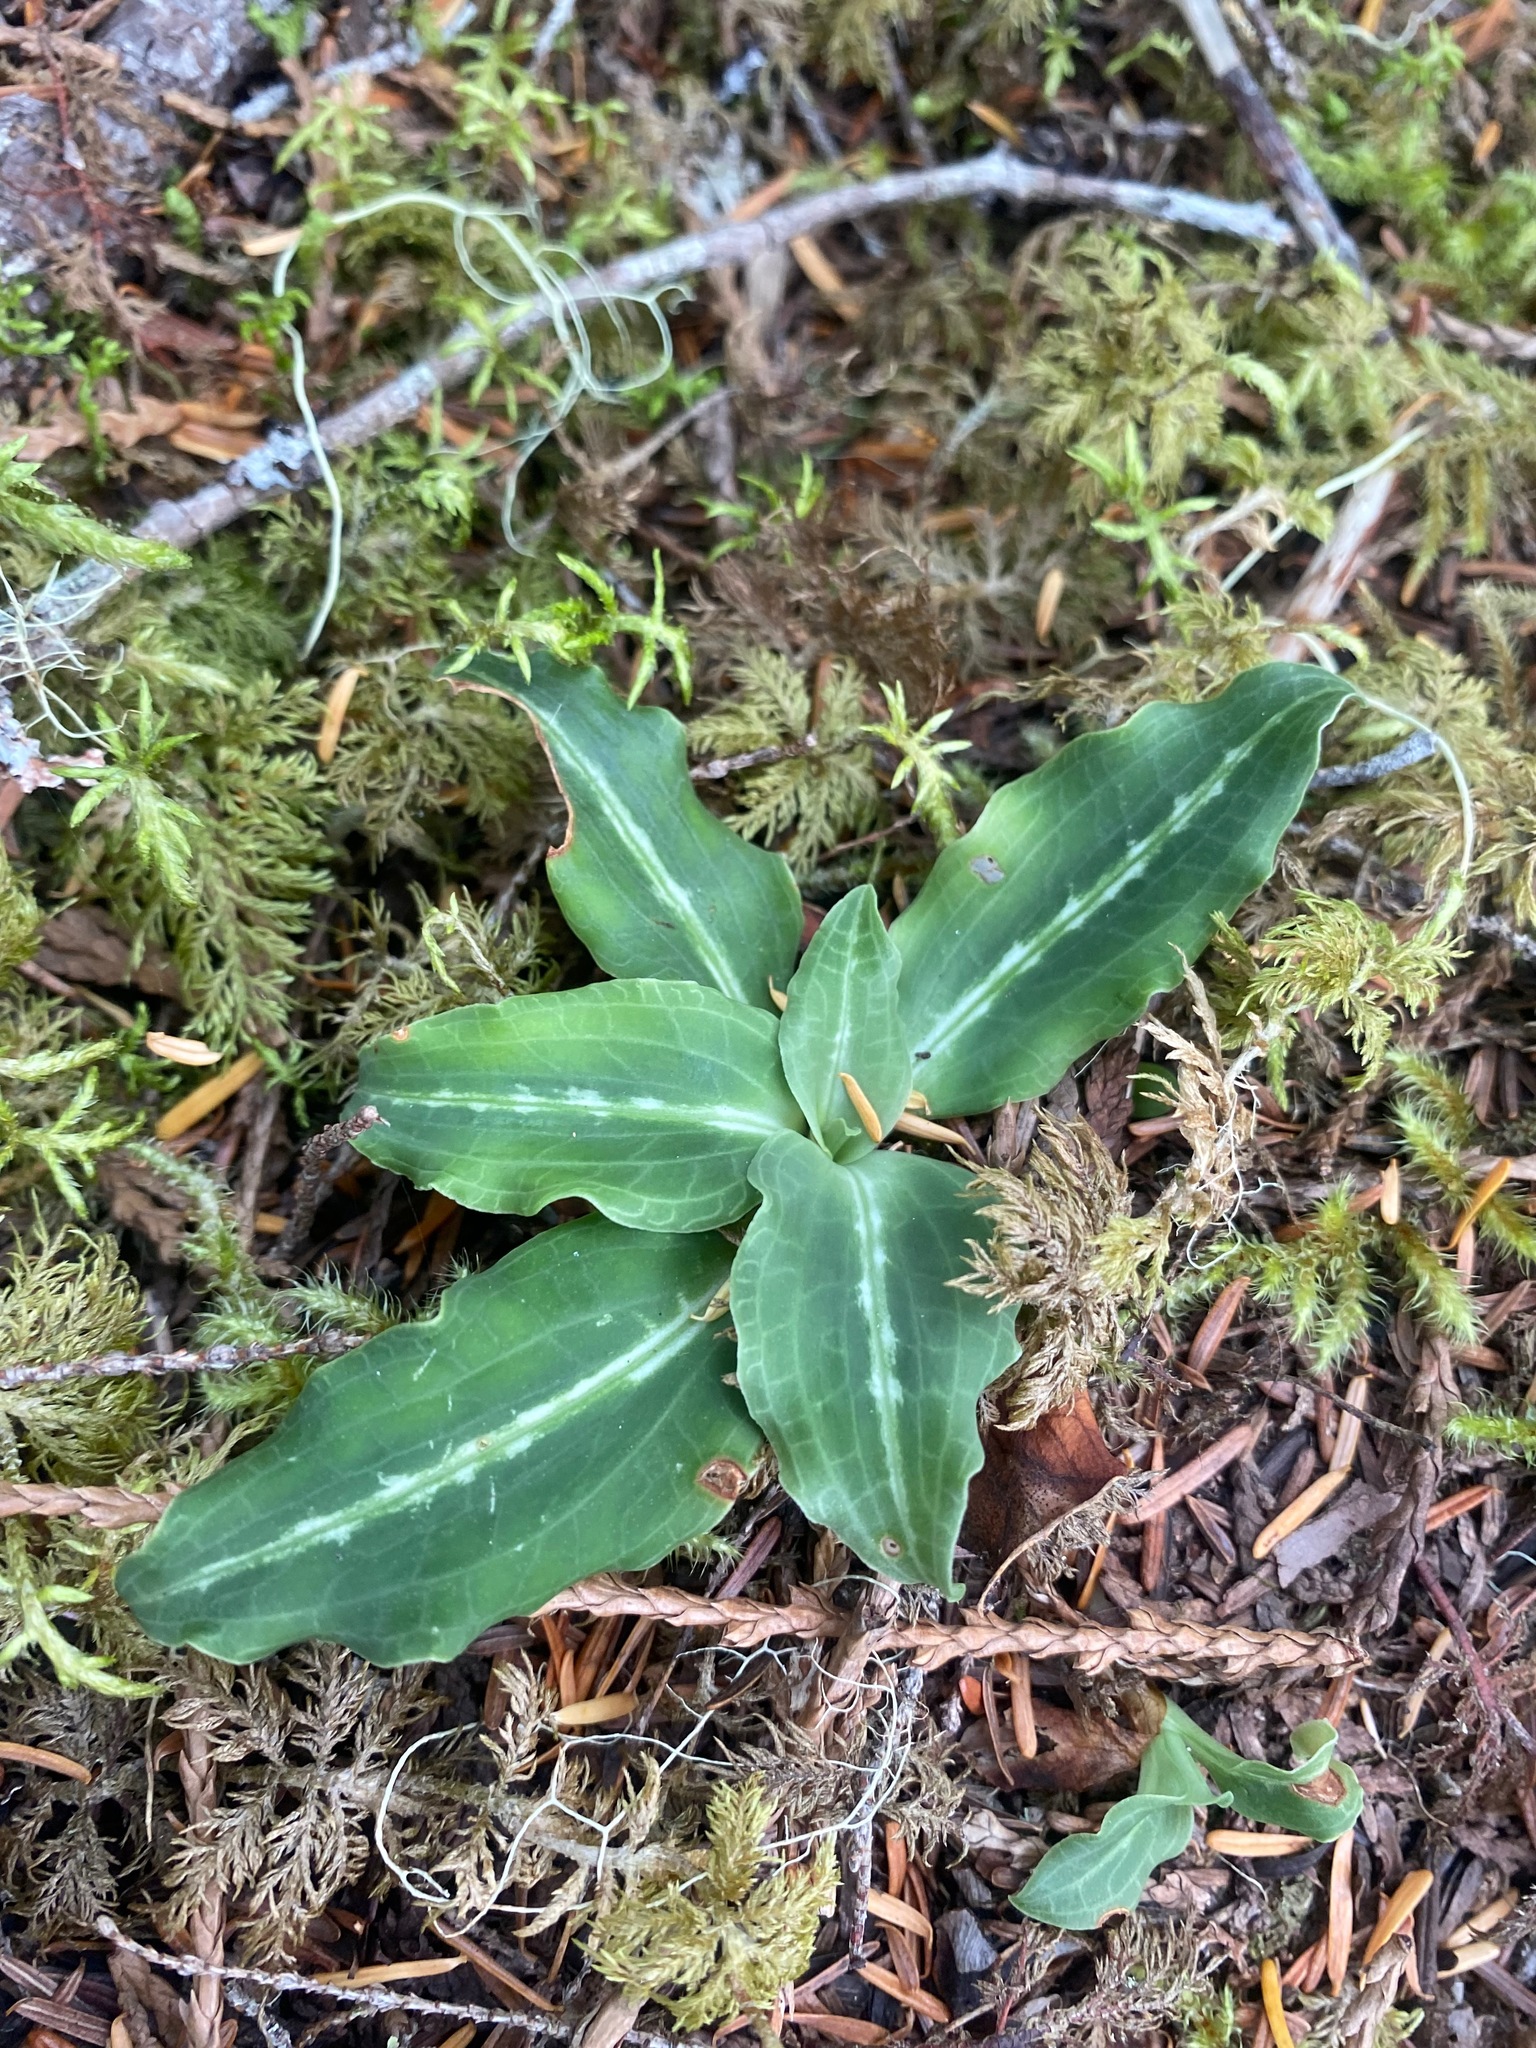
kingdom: Plantae
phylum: Tracheophyta
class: Liliopsida
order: Asparagales
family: Orchidaceae
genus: Goodyera
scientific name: Goodyera oblongifolia
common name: Giant rattlesnake-plantain
